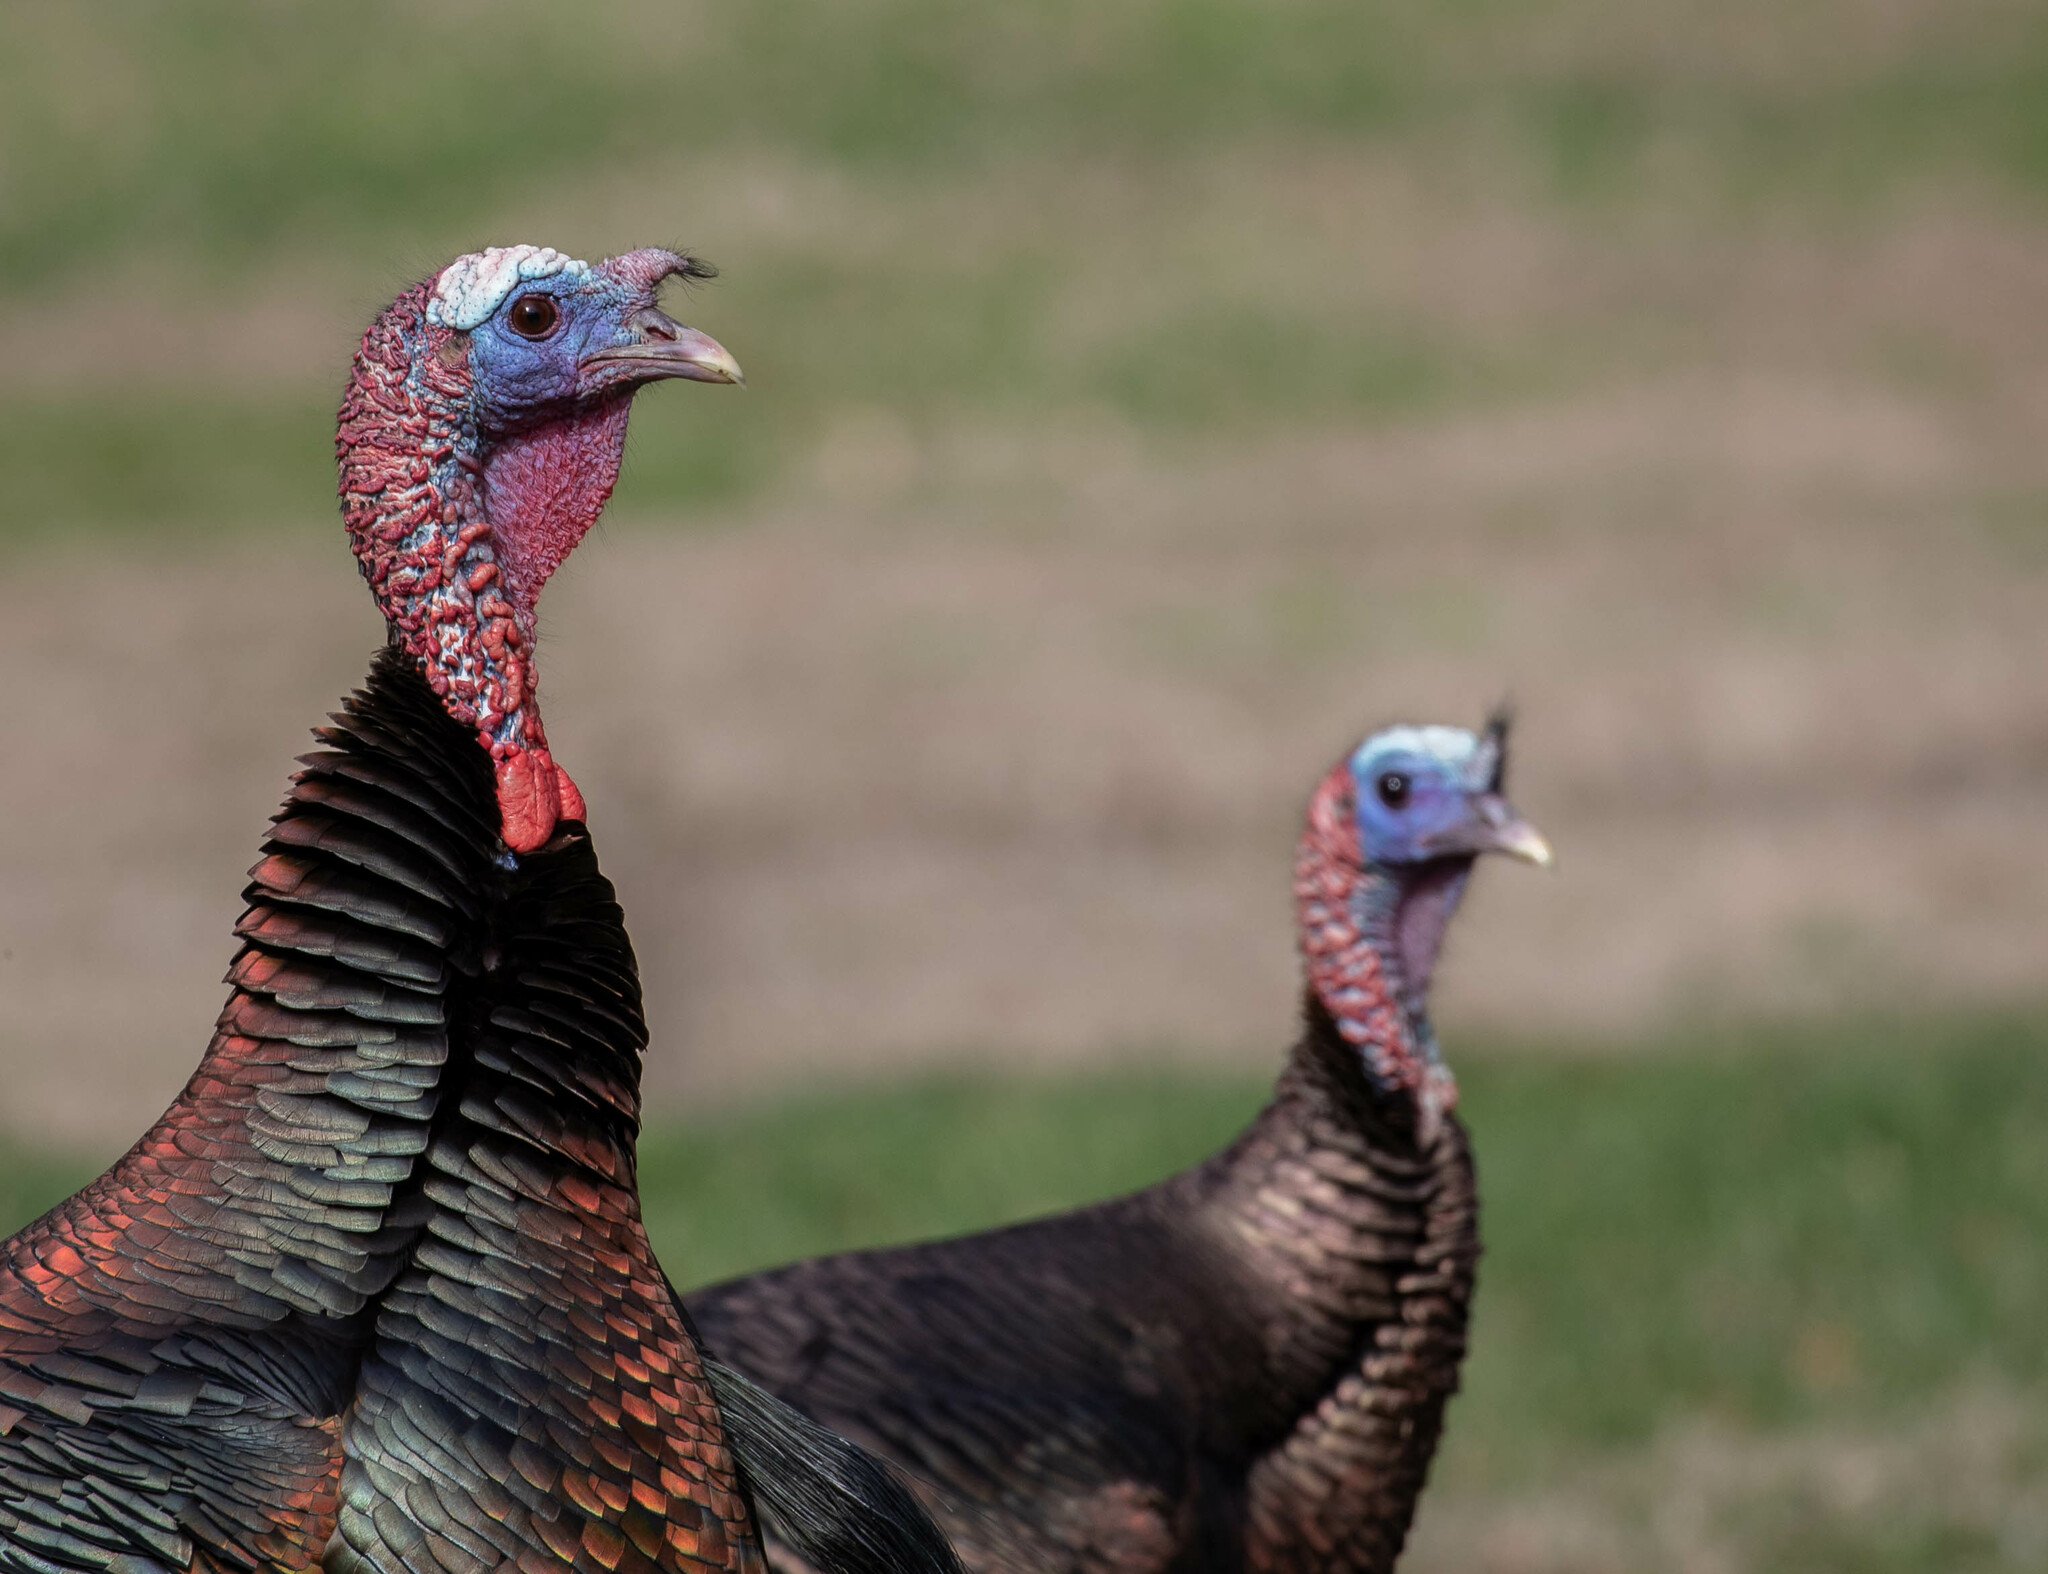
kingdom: Animalia
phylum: Chordata
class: Aves
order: Galliformes
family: Phasianidae
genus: Meleagris
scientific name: Meleagris gallopavo
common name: Wild turkey
